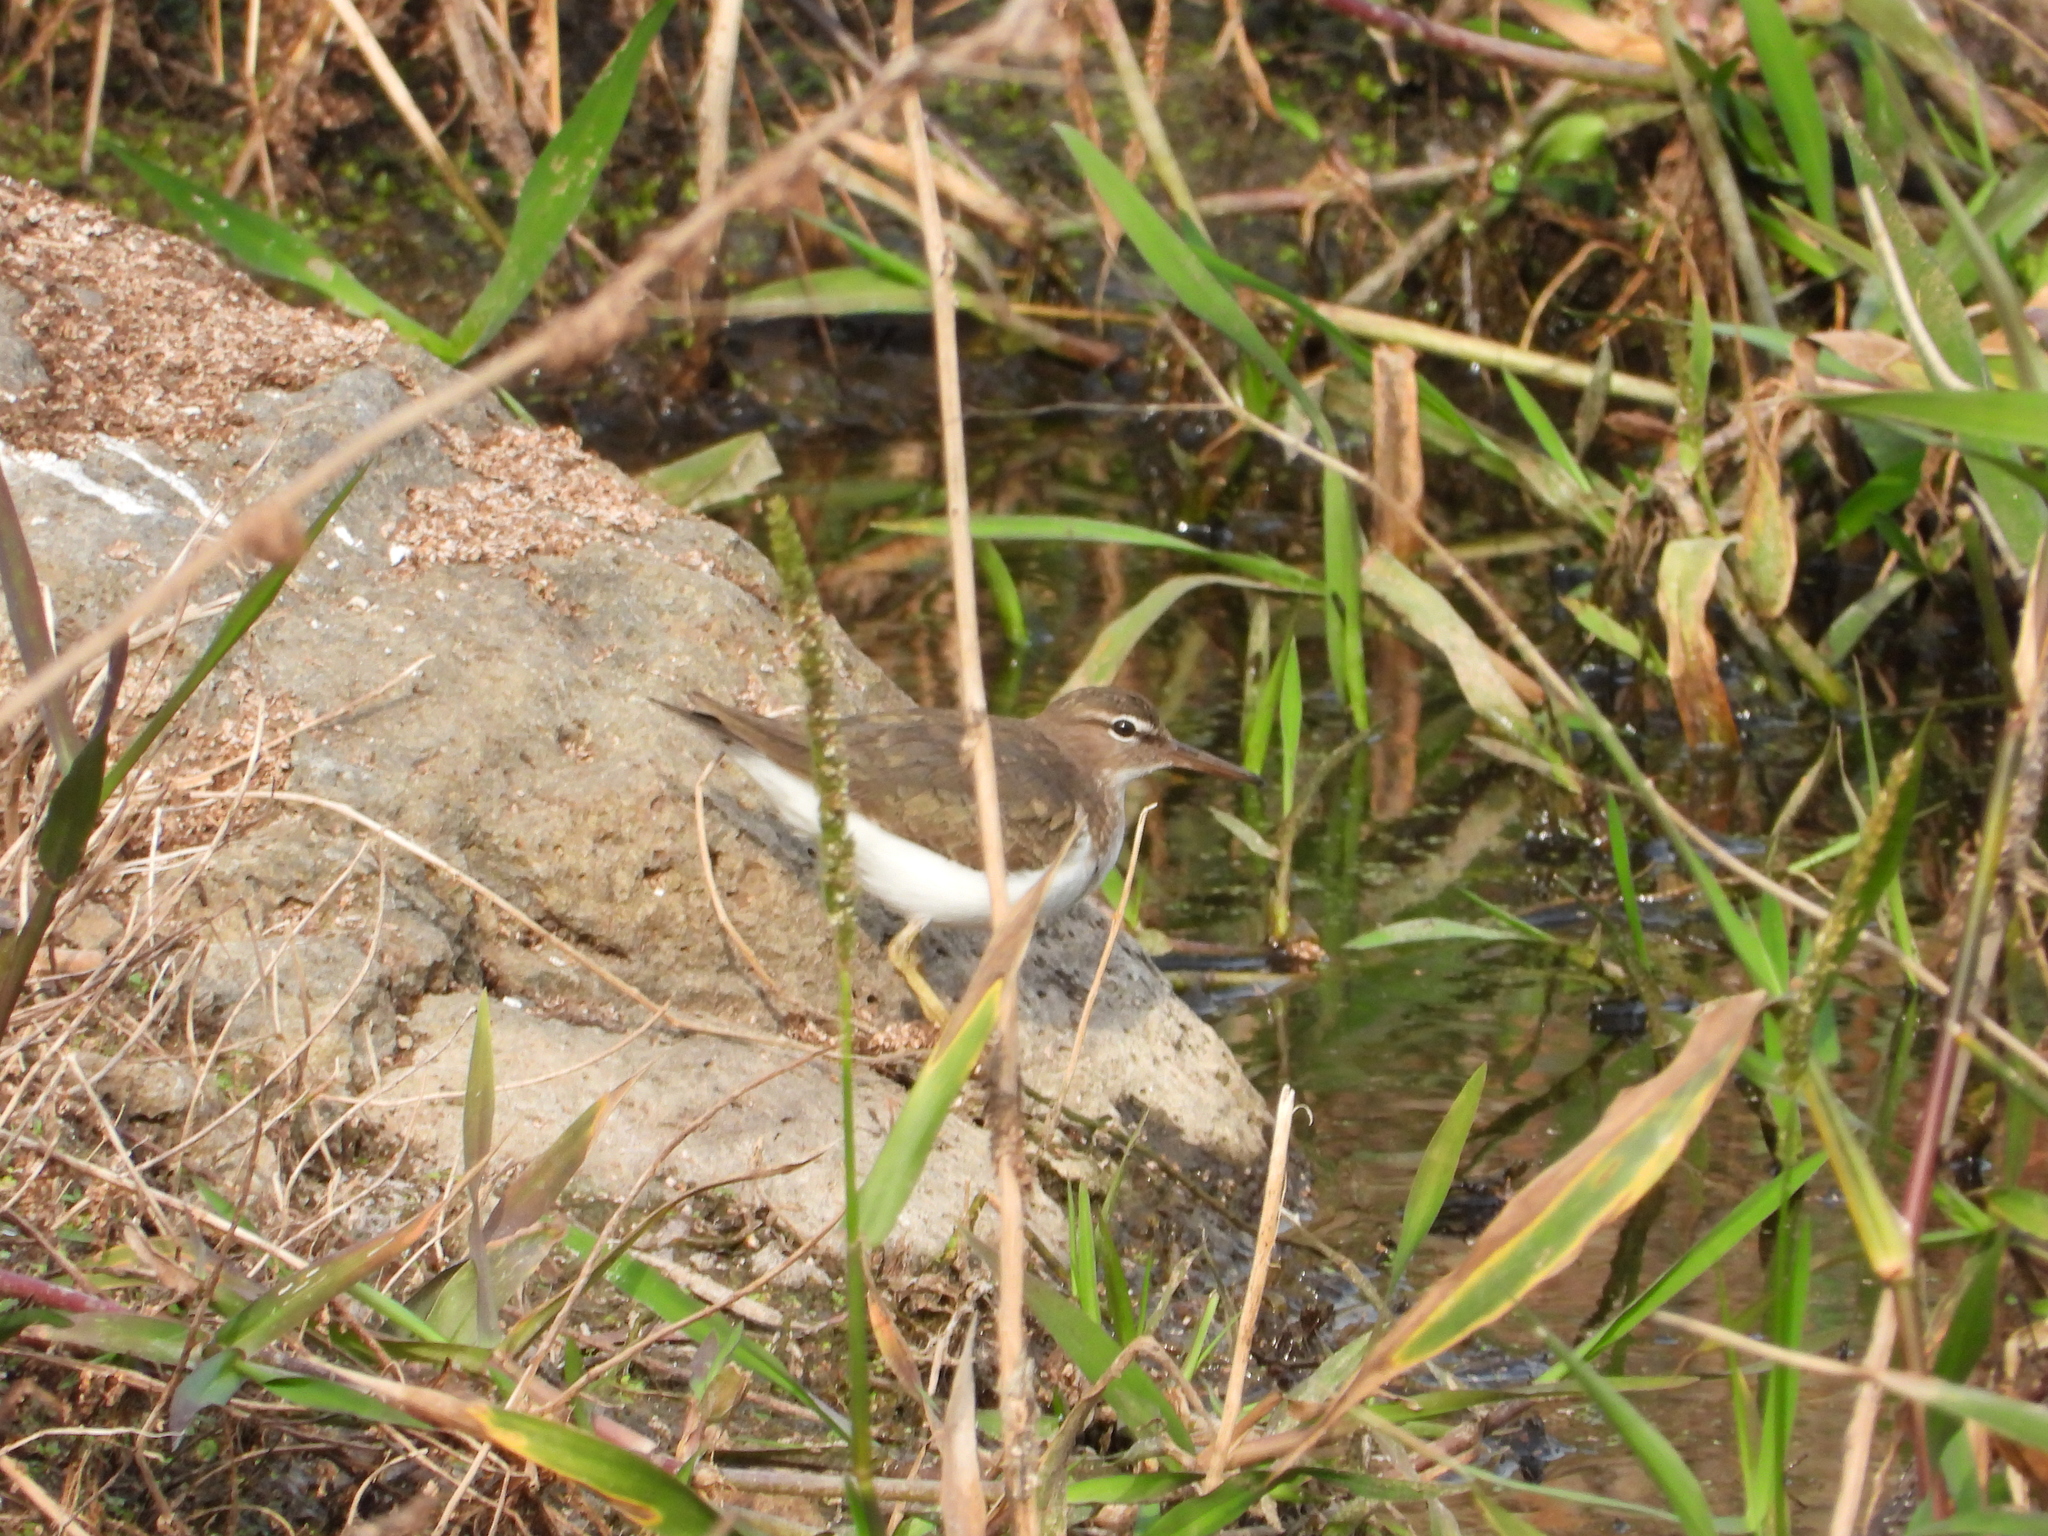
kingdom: Animalia
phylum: Chordata
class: Aves
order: Charadriiformes
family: Scolopacidae
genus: Actitis
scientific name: Actitis macularius
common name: Spotted sandpiper
